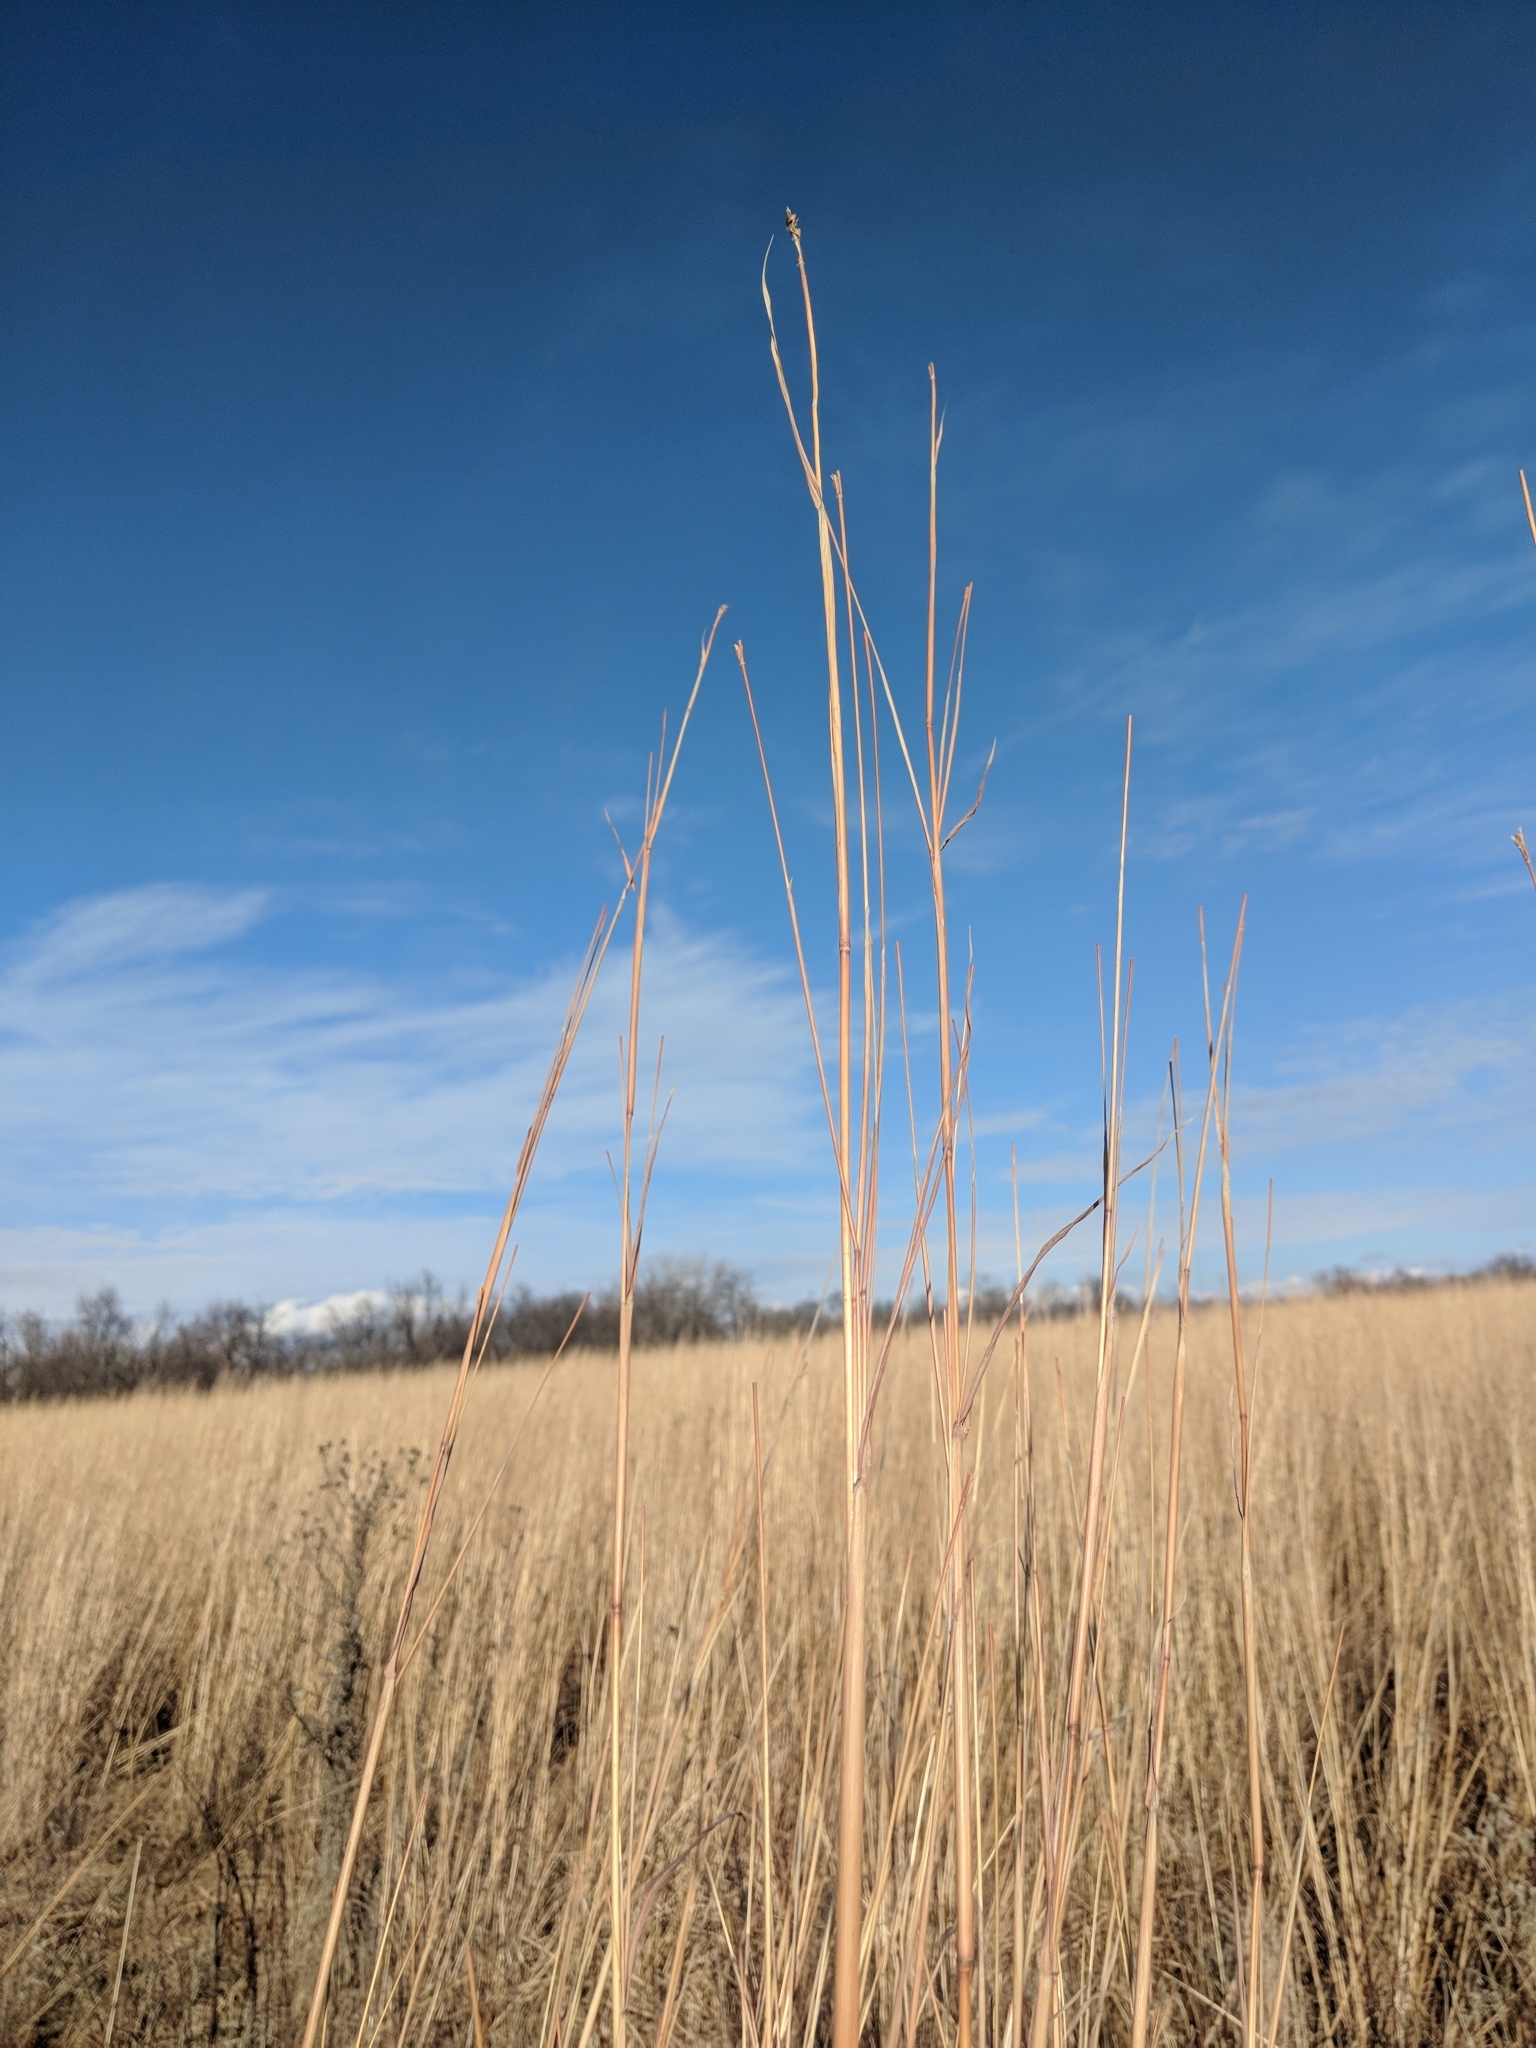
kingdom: Plantae
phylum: Tracheophyta
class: Liliopsida
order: Poales
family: Poaceae
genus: Andropogon
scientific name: Andropogon gerardi
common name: Big bluestem
